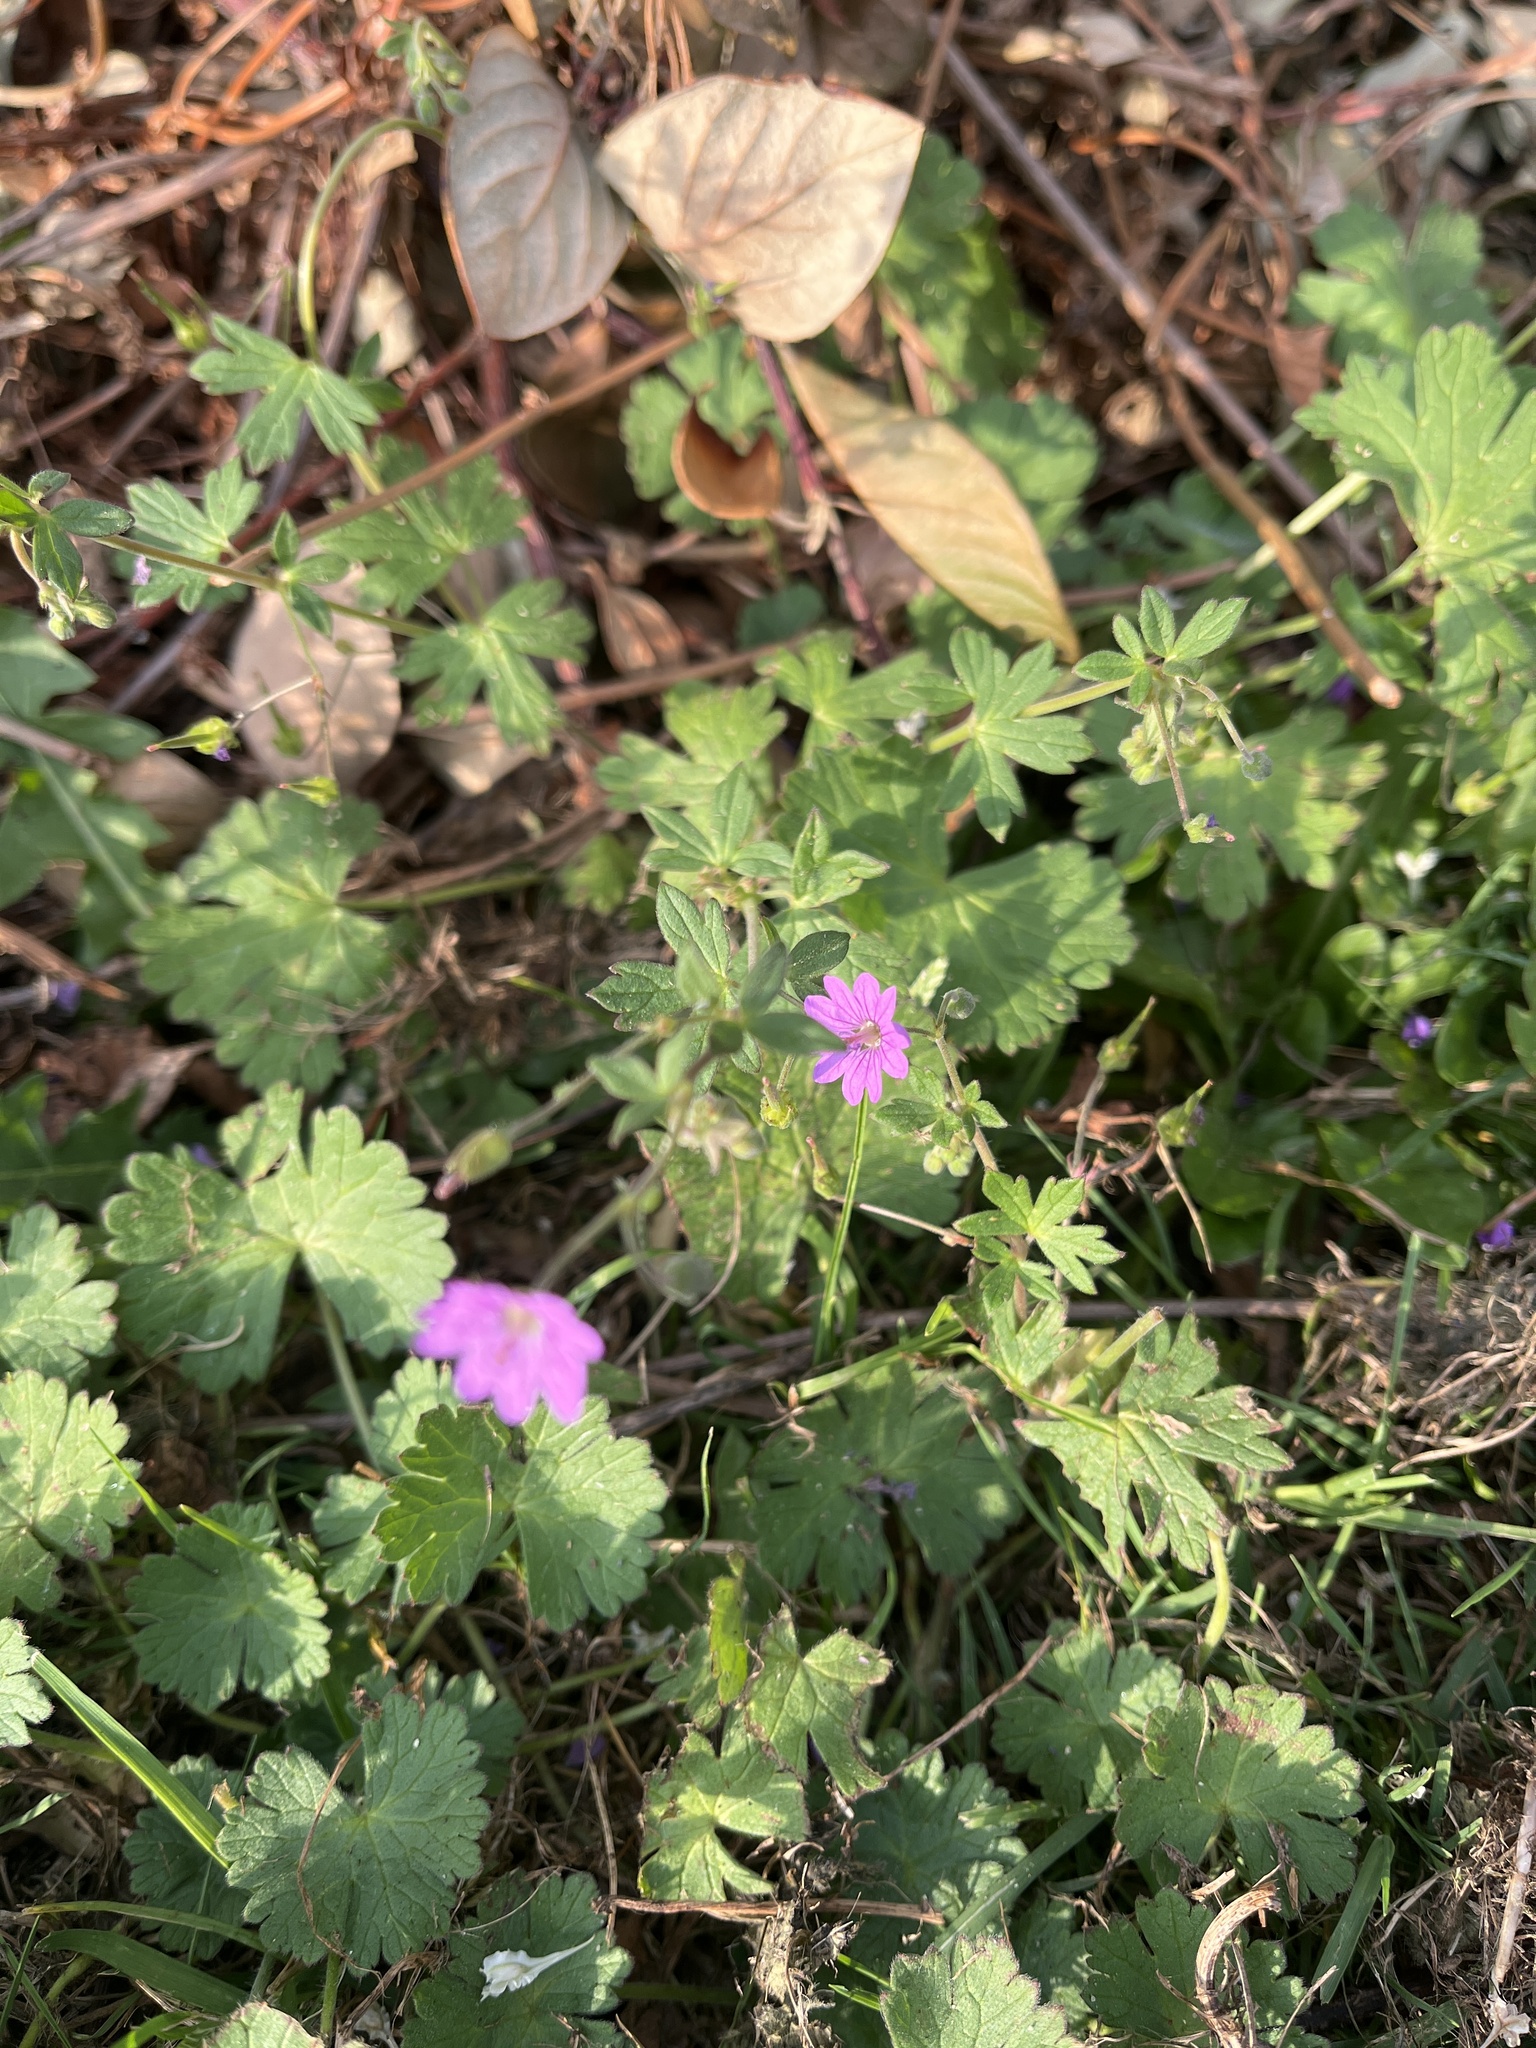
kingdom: Plantae
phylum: Tracheophyta
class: Magnoliopsida
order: Geraniales
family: Geraniaceae
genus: Geranium
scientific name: Geranium pyrenaicum
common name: Hedgerow crane's-bill
